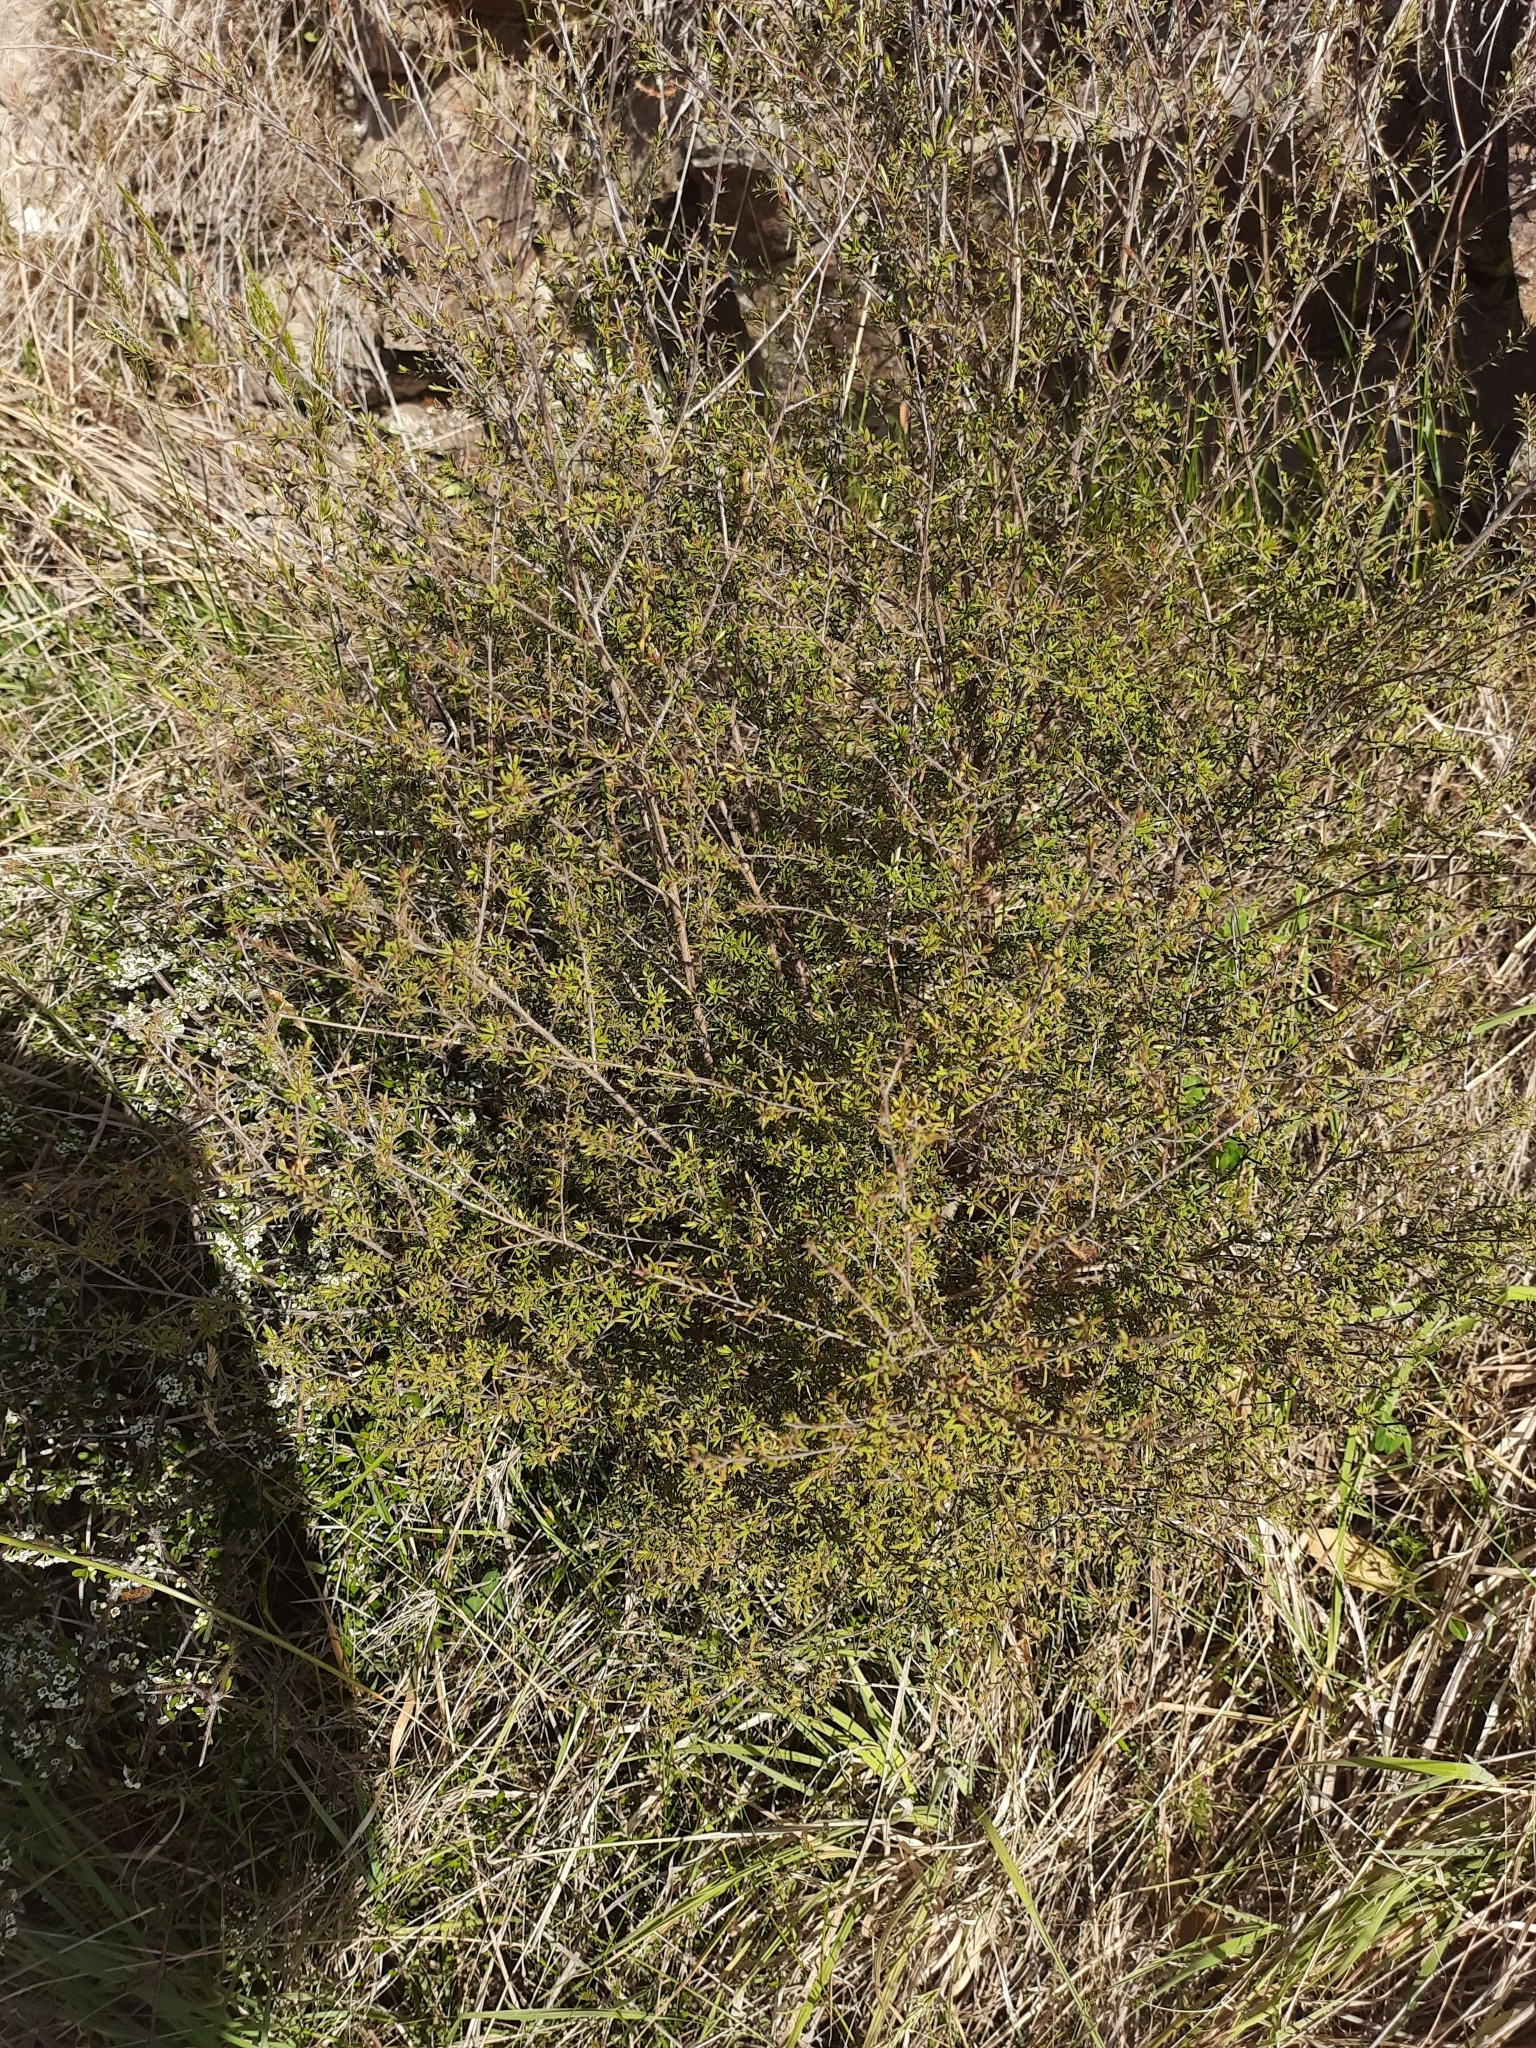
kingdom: Plantae
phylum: Tracheophyta
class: Magnoliopsida
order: Myrtales
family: Myrtaceae
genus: Kunzea
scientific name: Kunzea robusta
